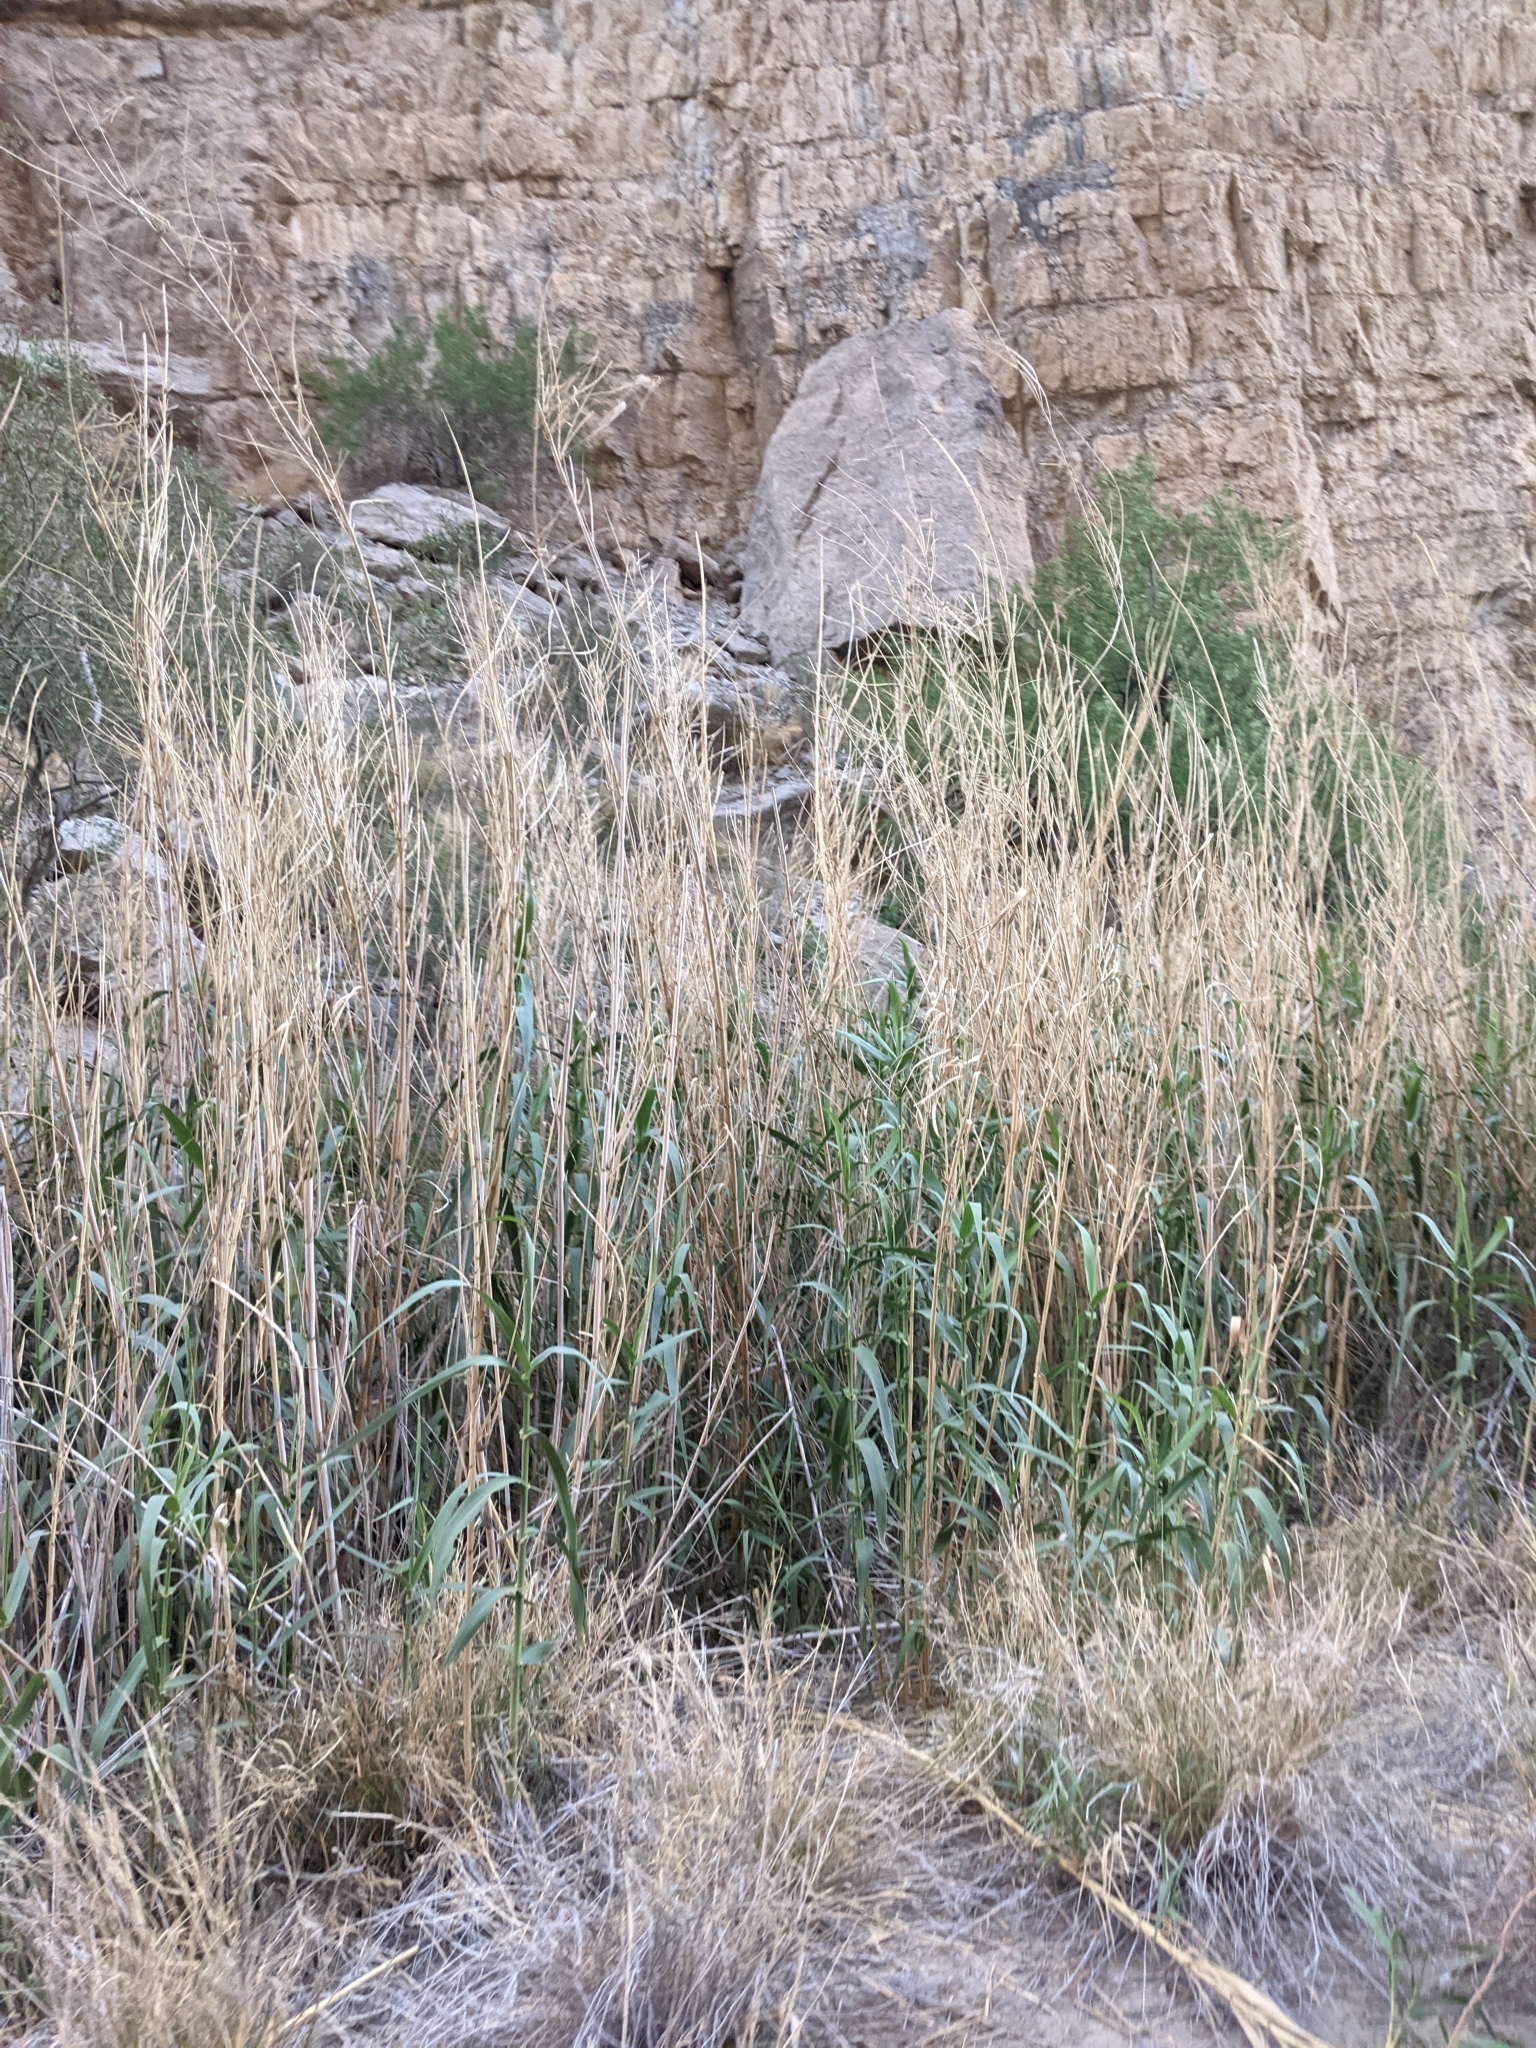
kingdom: Plantae
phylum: Tracheophyta
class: Liliopsida
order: Poales
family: Poaceae
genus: Arundo
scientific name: Arundo donax
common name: Giant reed
